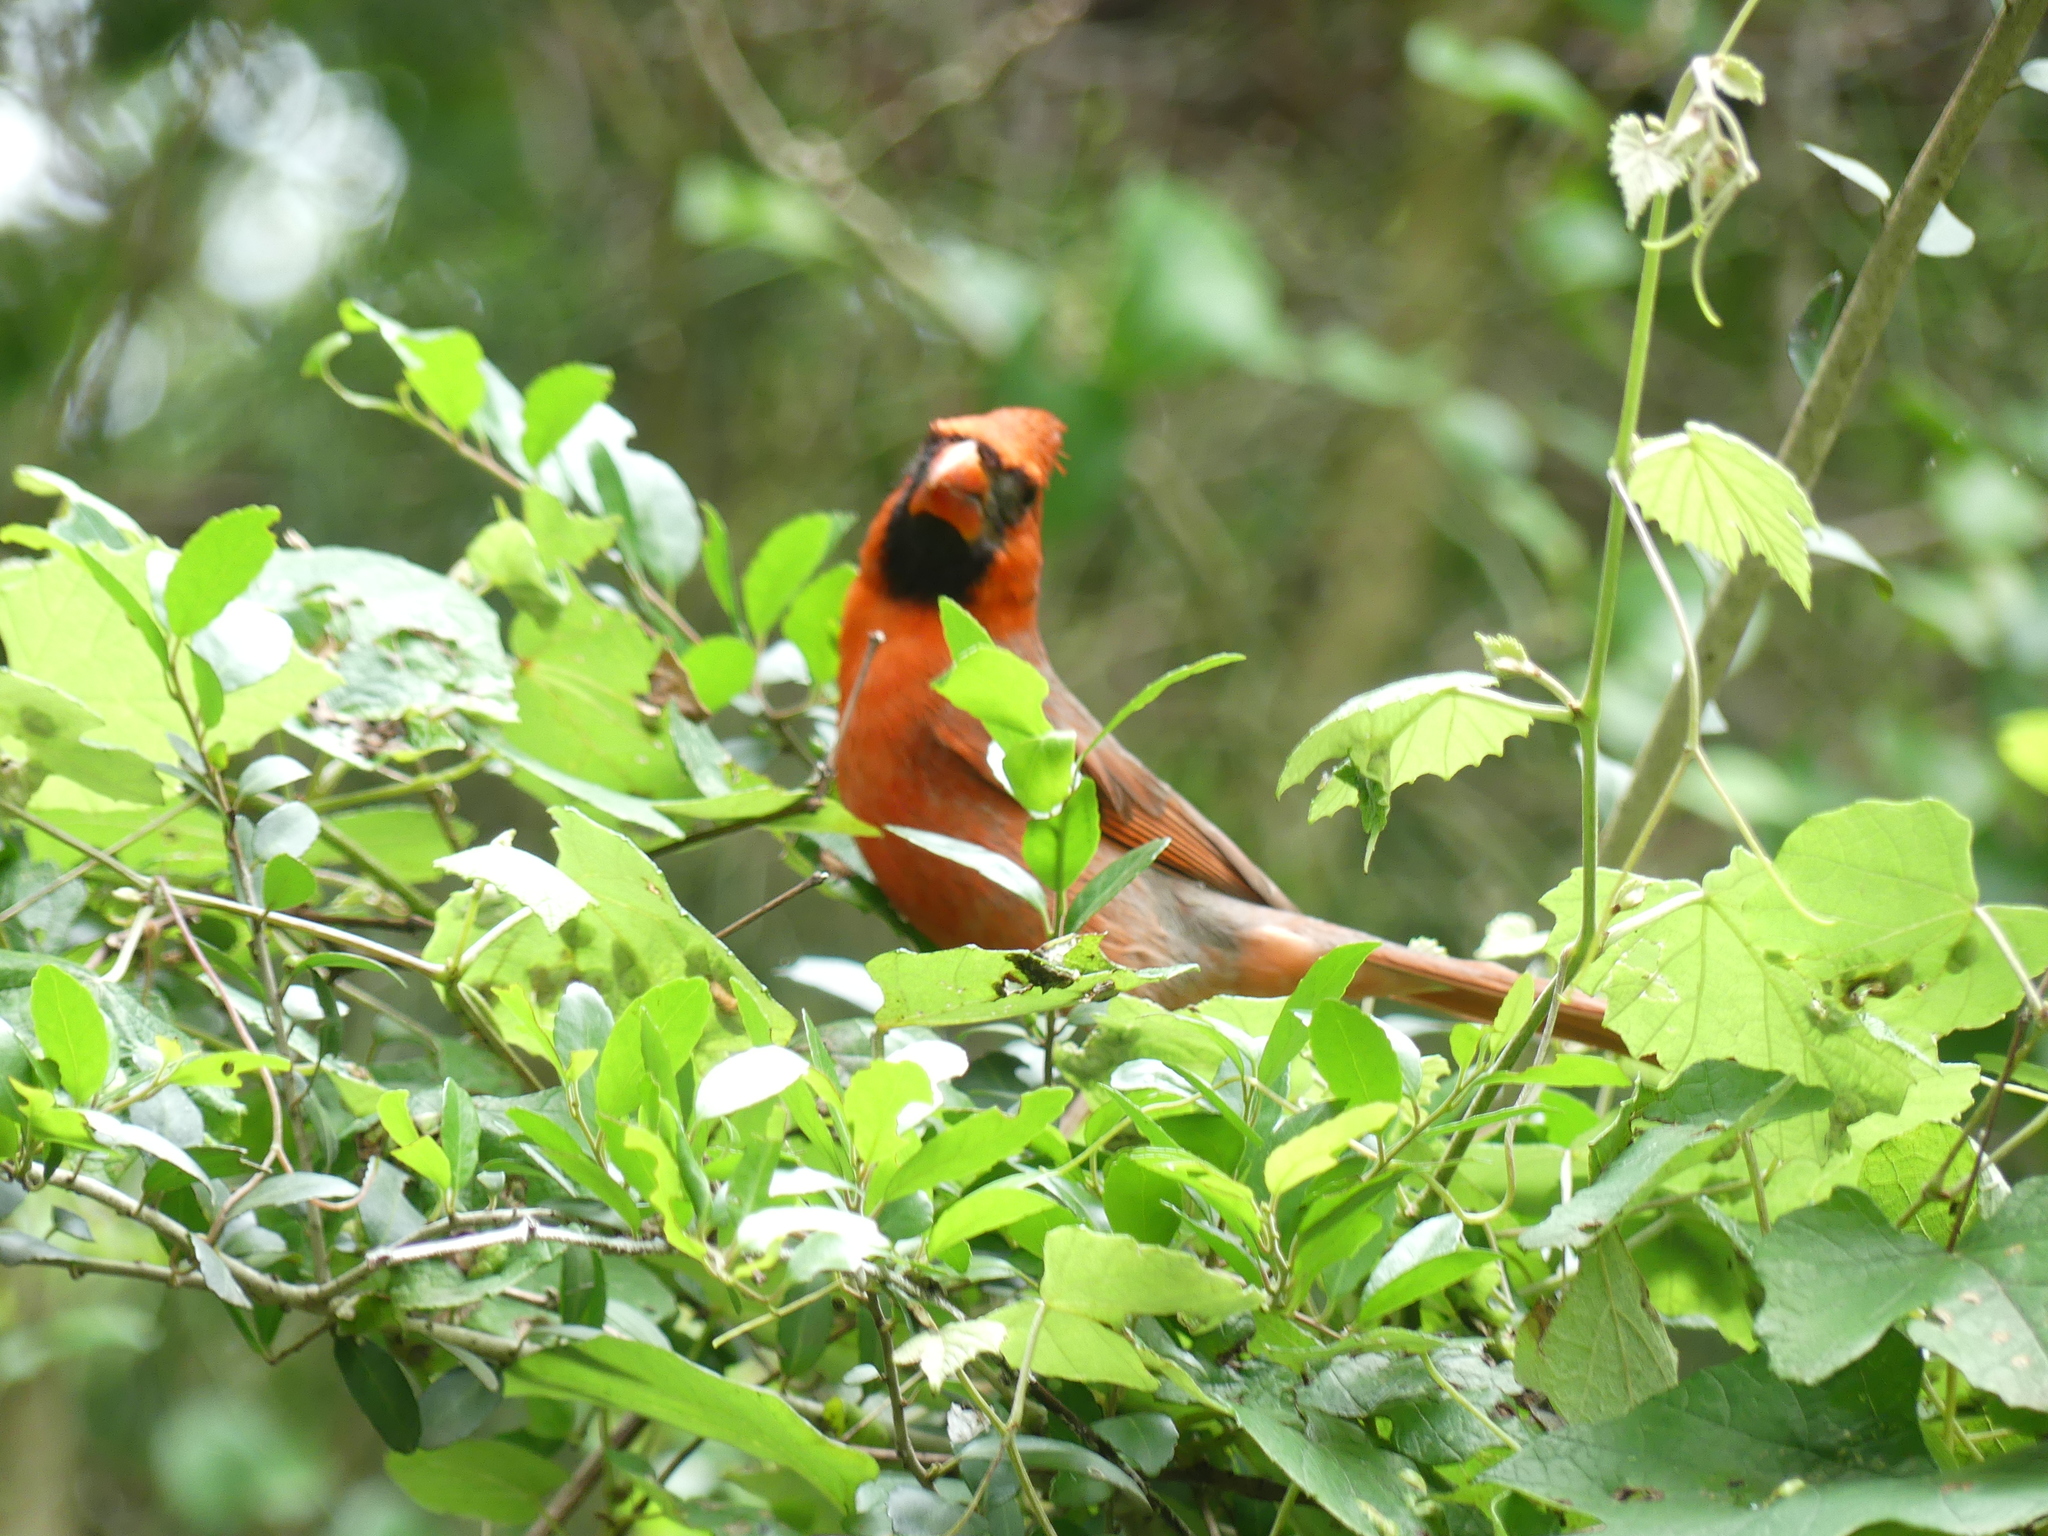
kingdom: Animalia
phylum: Chordata
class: Aves
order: Passeriformes
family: Cardinalidae
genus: Cardinalis
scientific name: Cardinalis cardinalis
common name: Northern cardinal
